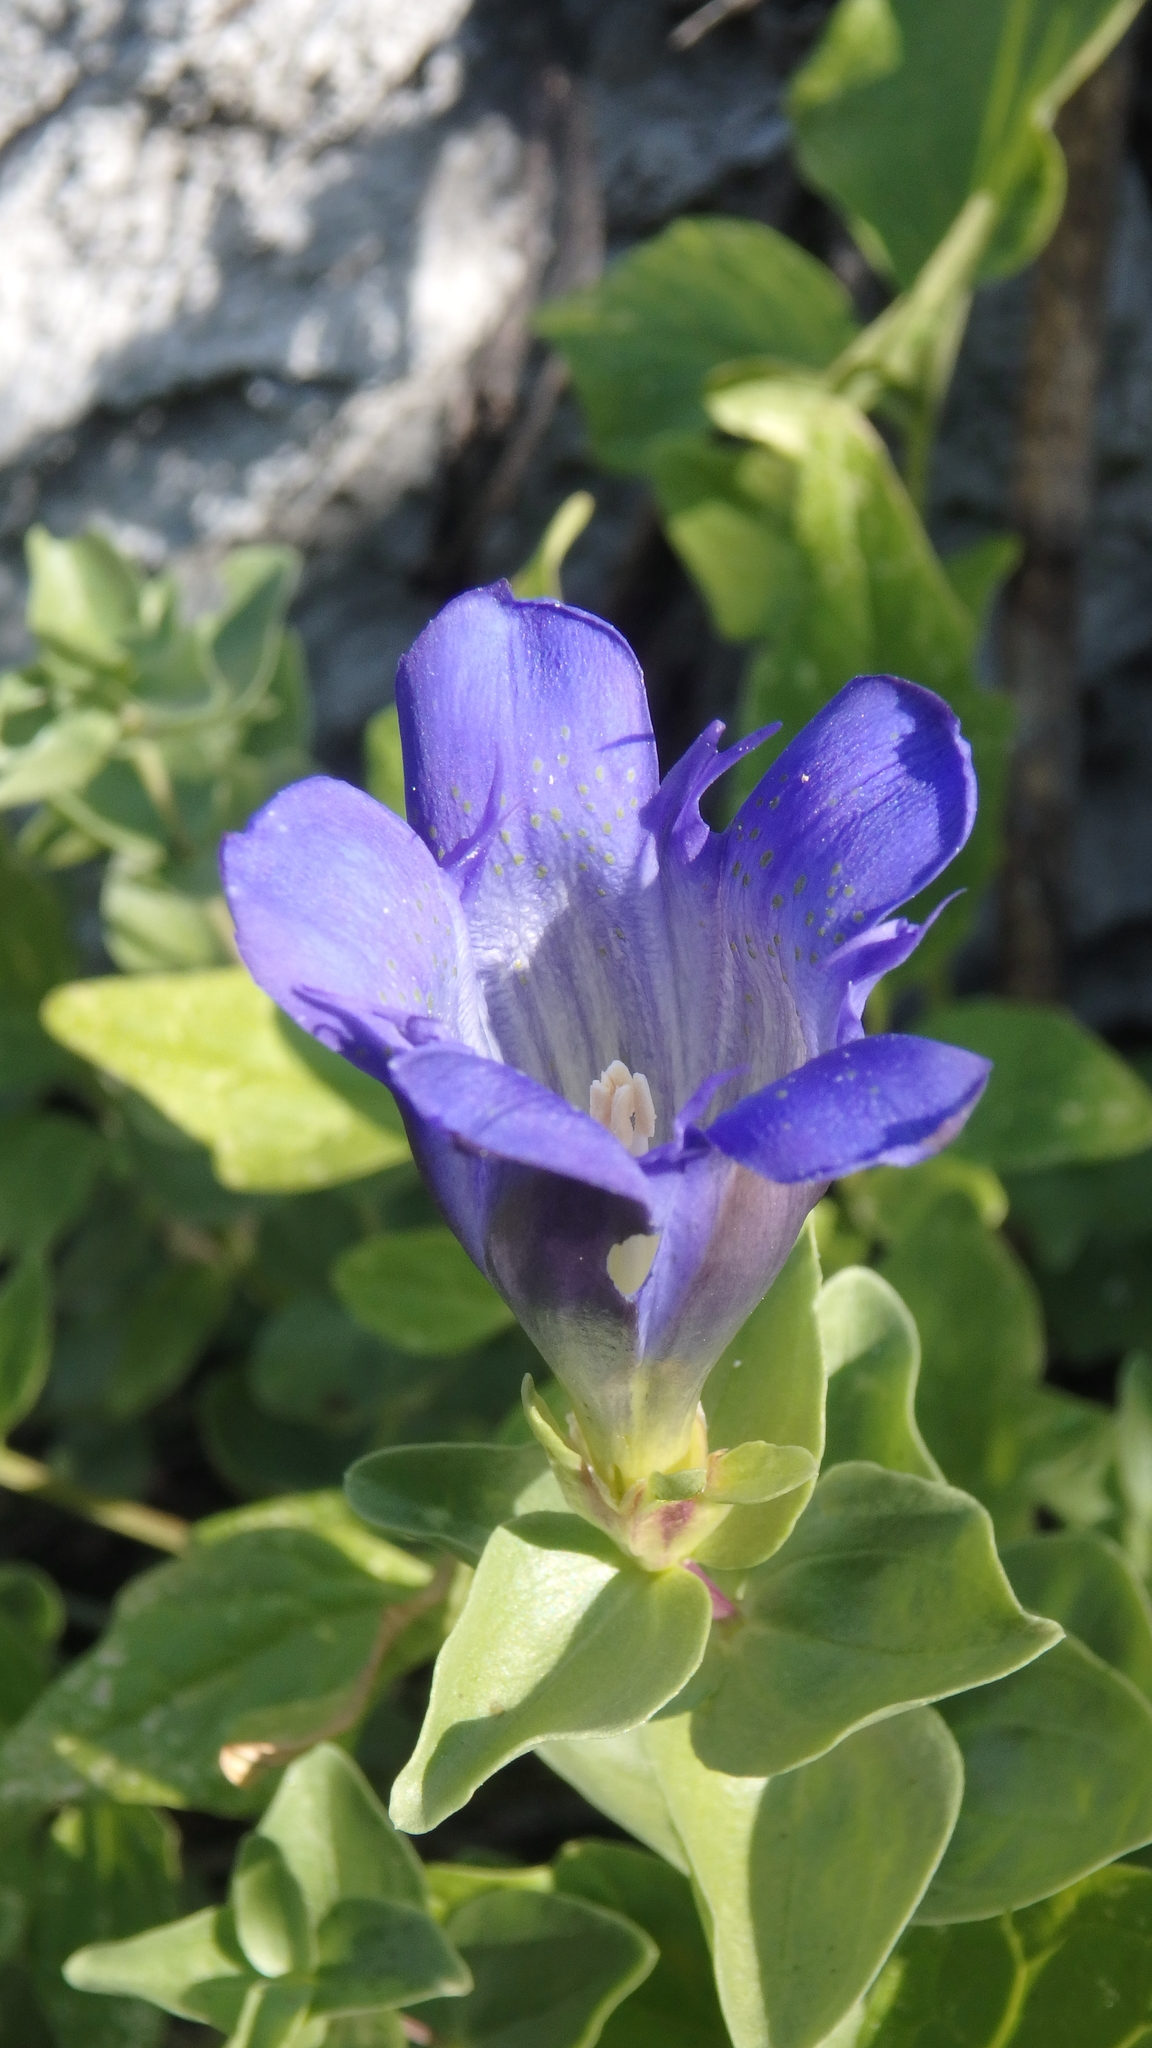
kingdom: Plantae
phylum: Tracheophyta
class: Magnoliopsida
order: Gentianales
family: Gentianaceae
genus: Gentiana
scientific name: Gentiana calycosa
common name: Rainier pleated gentian
